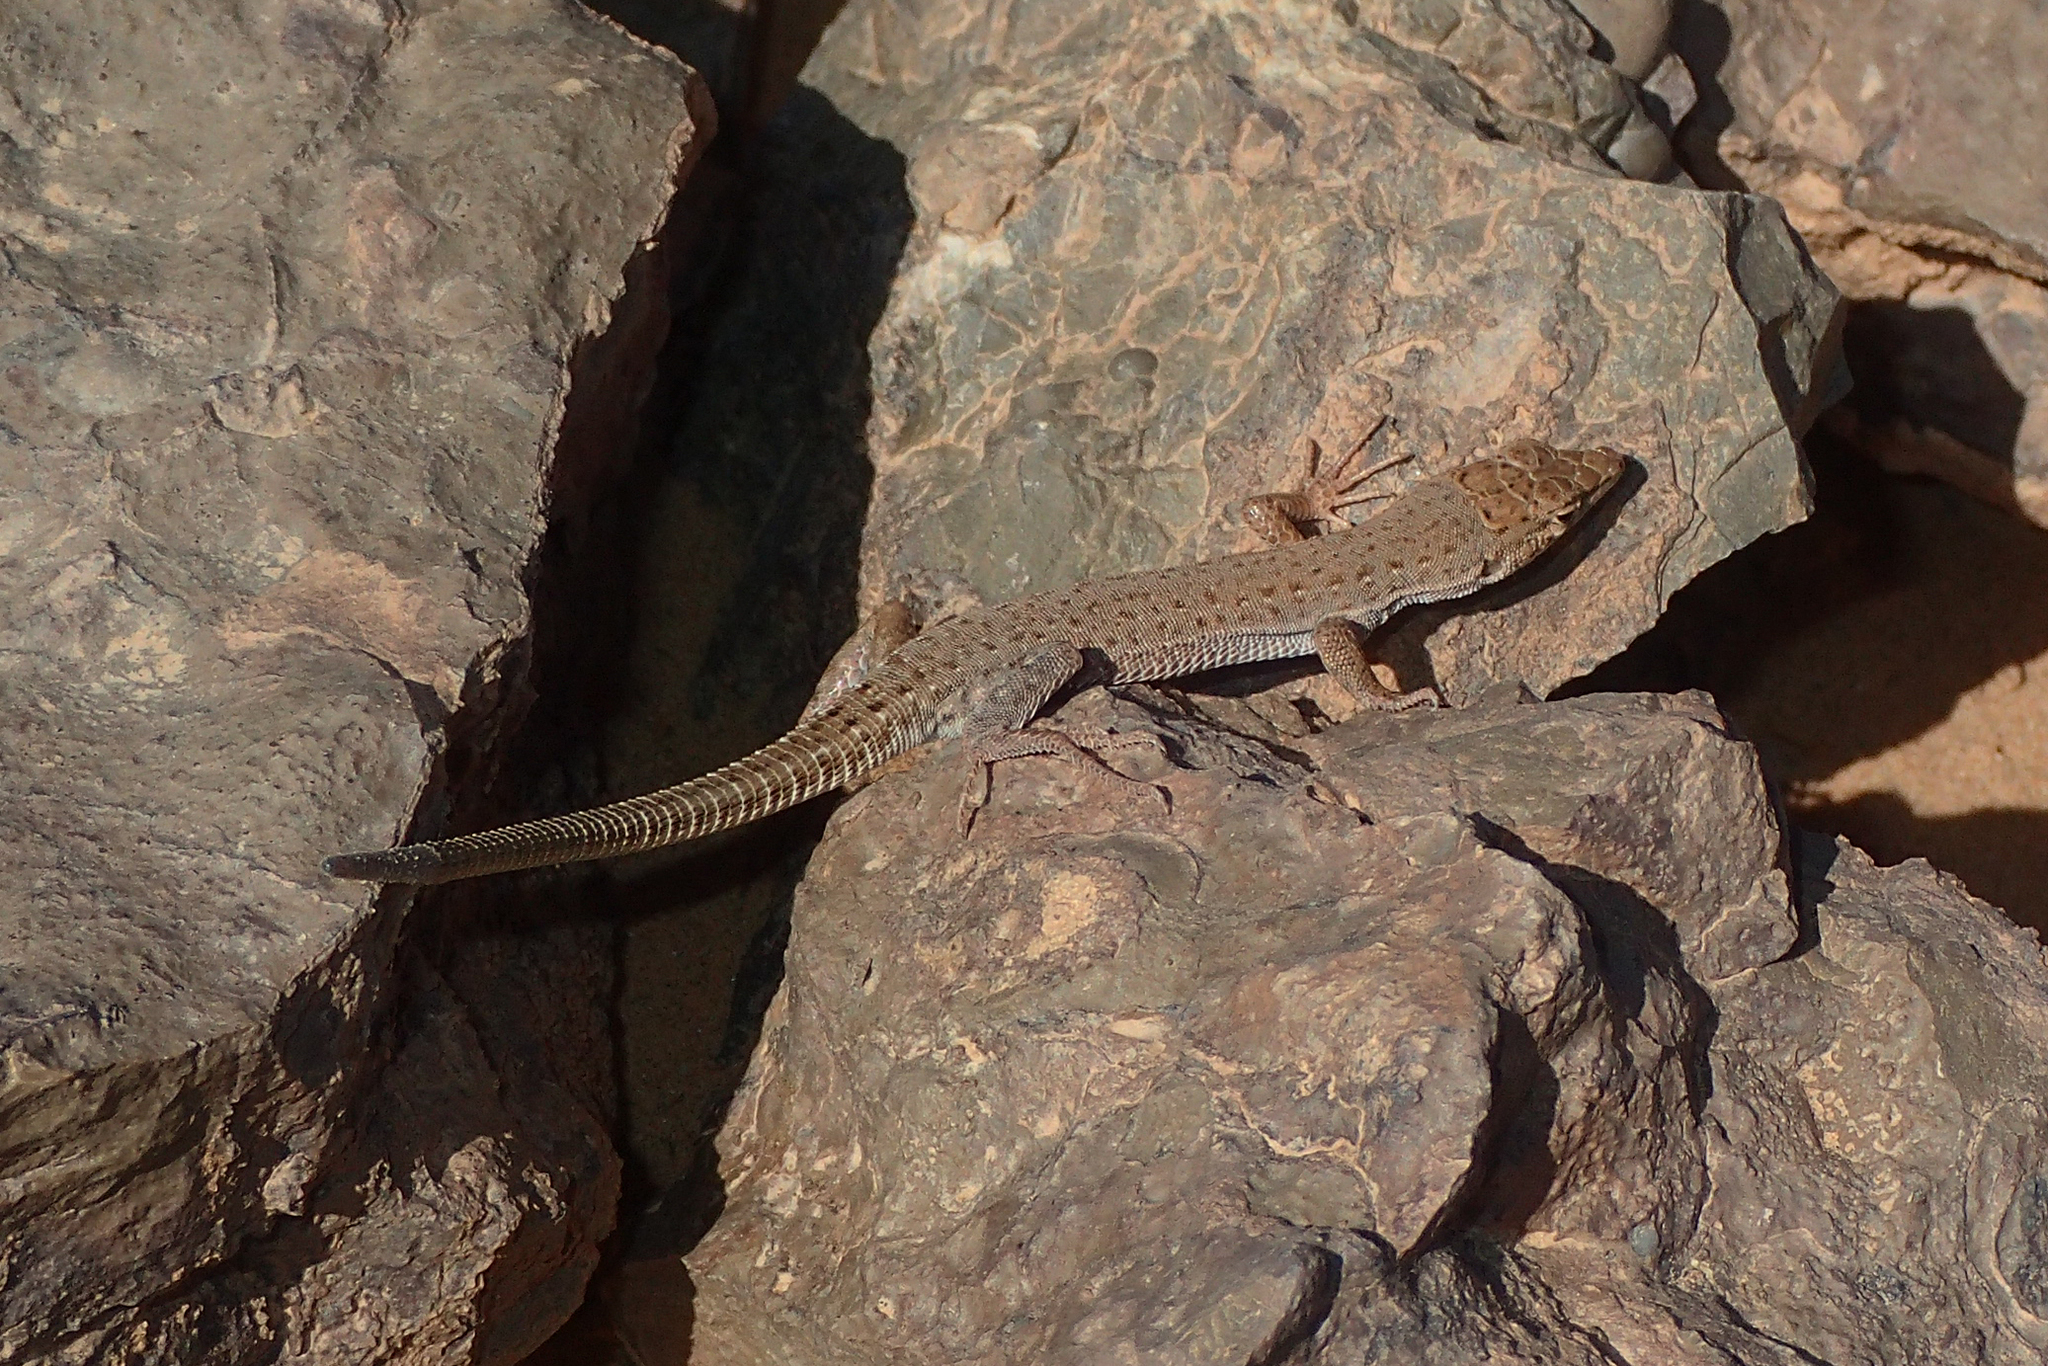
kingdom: Animalia
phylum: Chordata
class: Squamata
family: Lacertidae
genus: Mesalina
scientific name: Mesalina guttulata
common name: Desert lacerta
